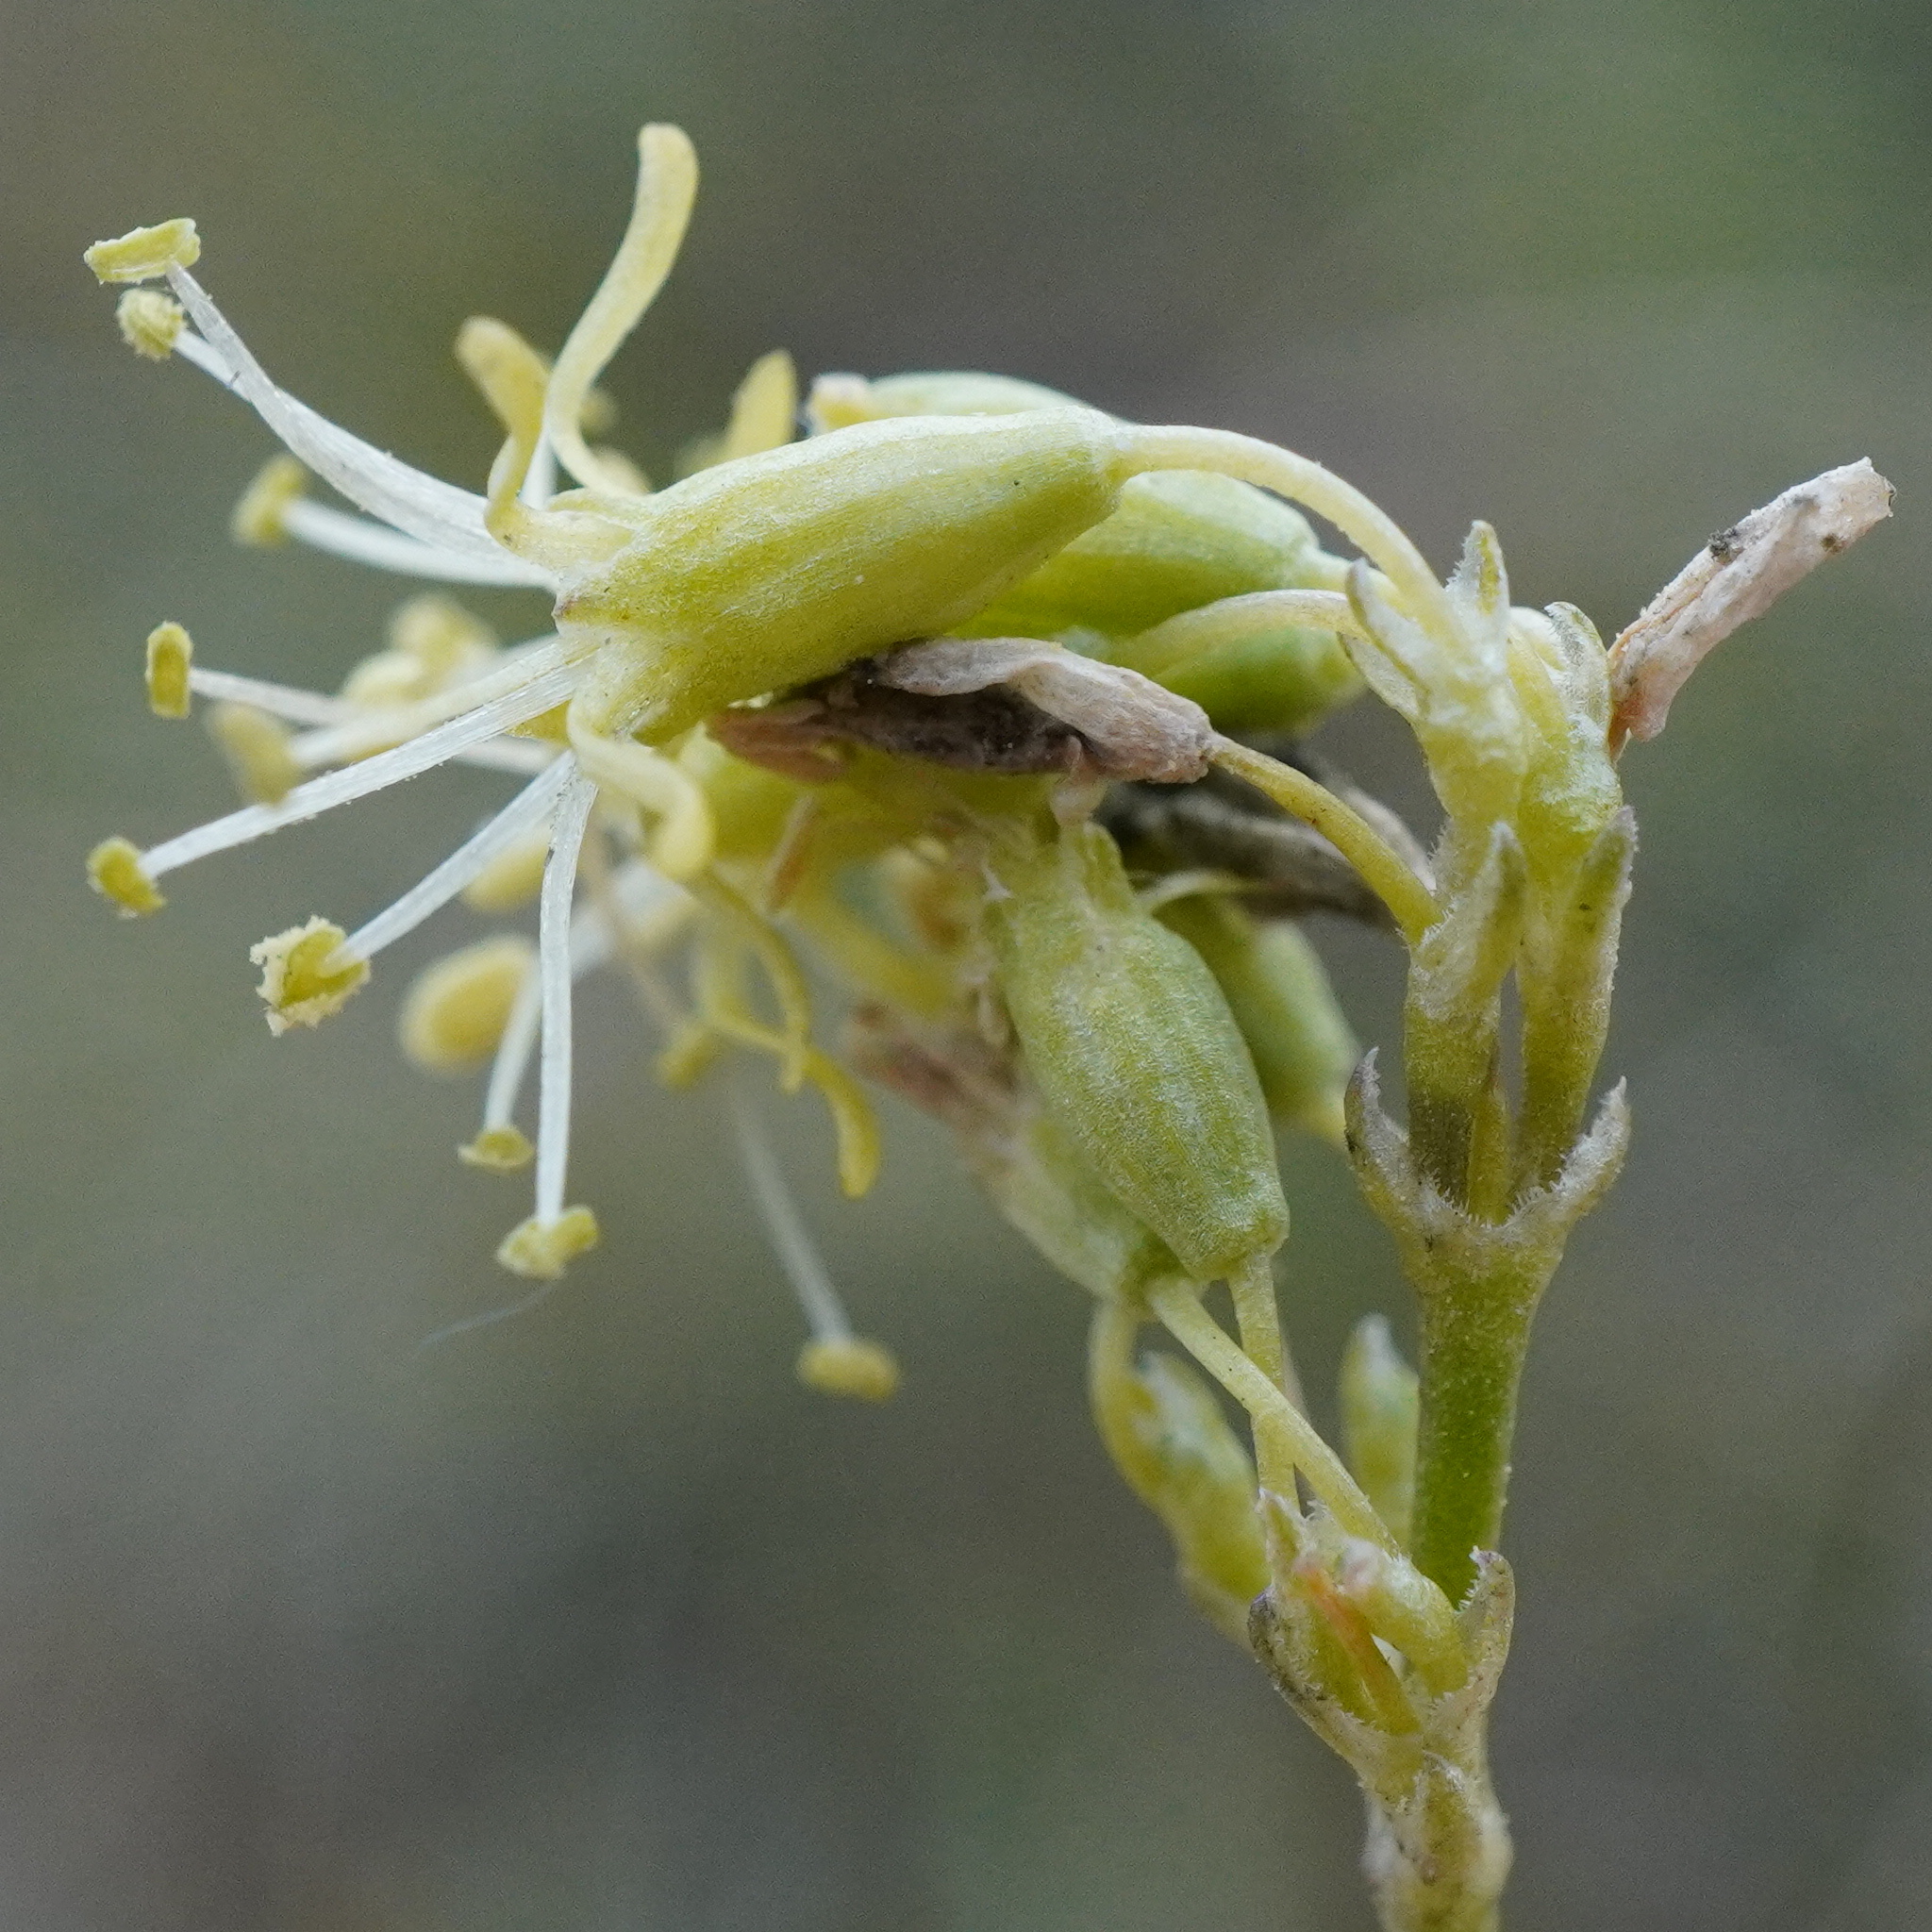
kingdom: Plantae
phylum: Tracheophyta
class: Magnoliopsida
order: Caryophyllales
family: Caryophyllaceae
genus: Silene
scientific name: Silene otites
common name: Spanish catchfly
